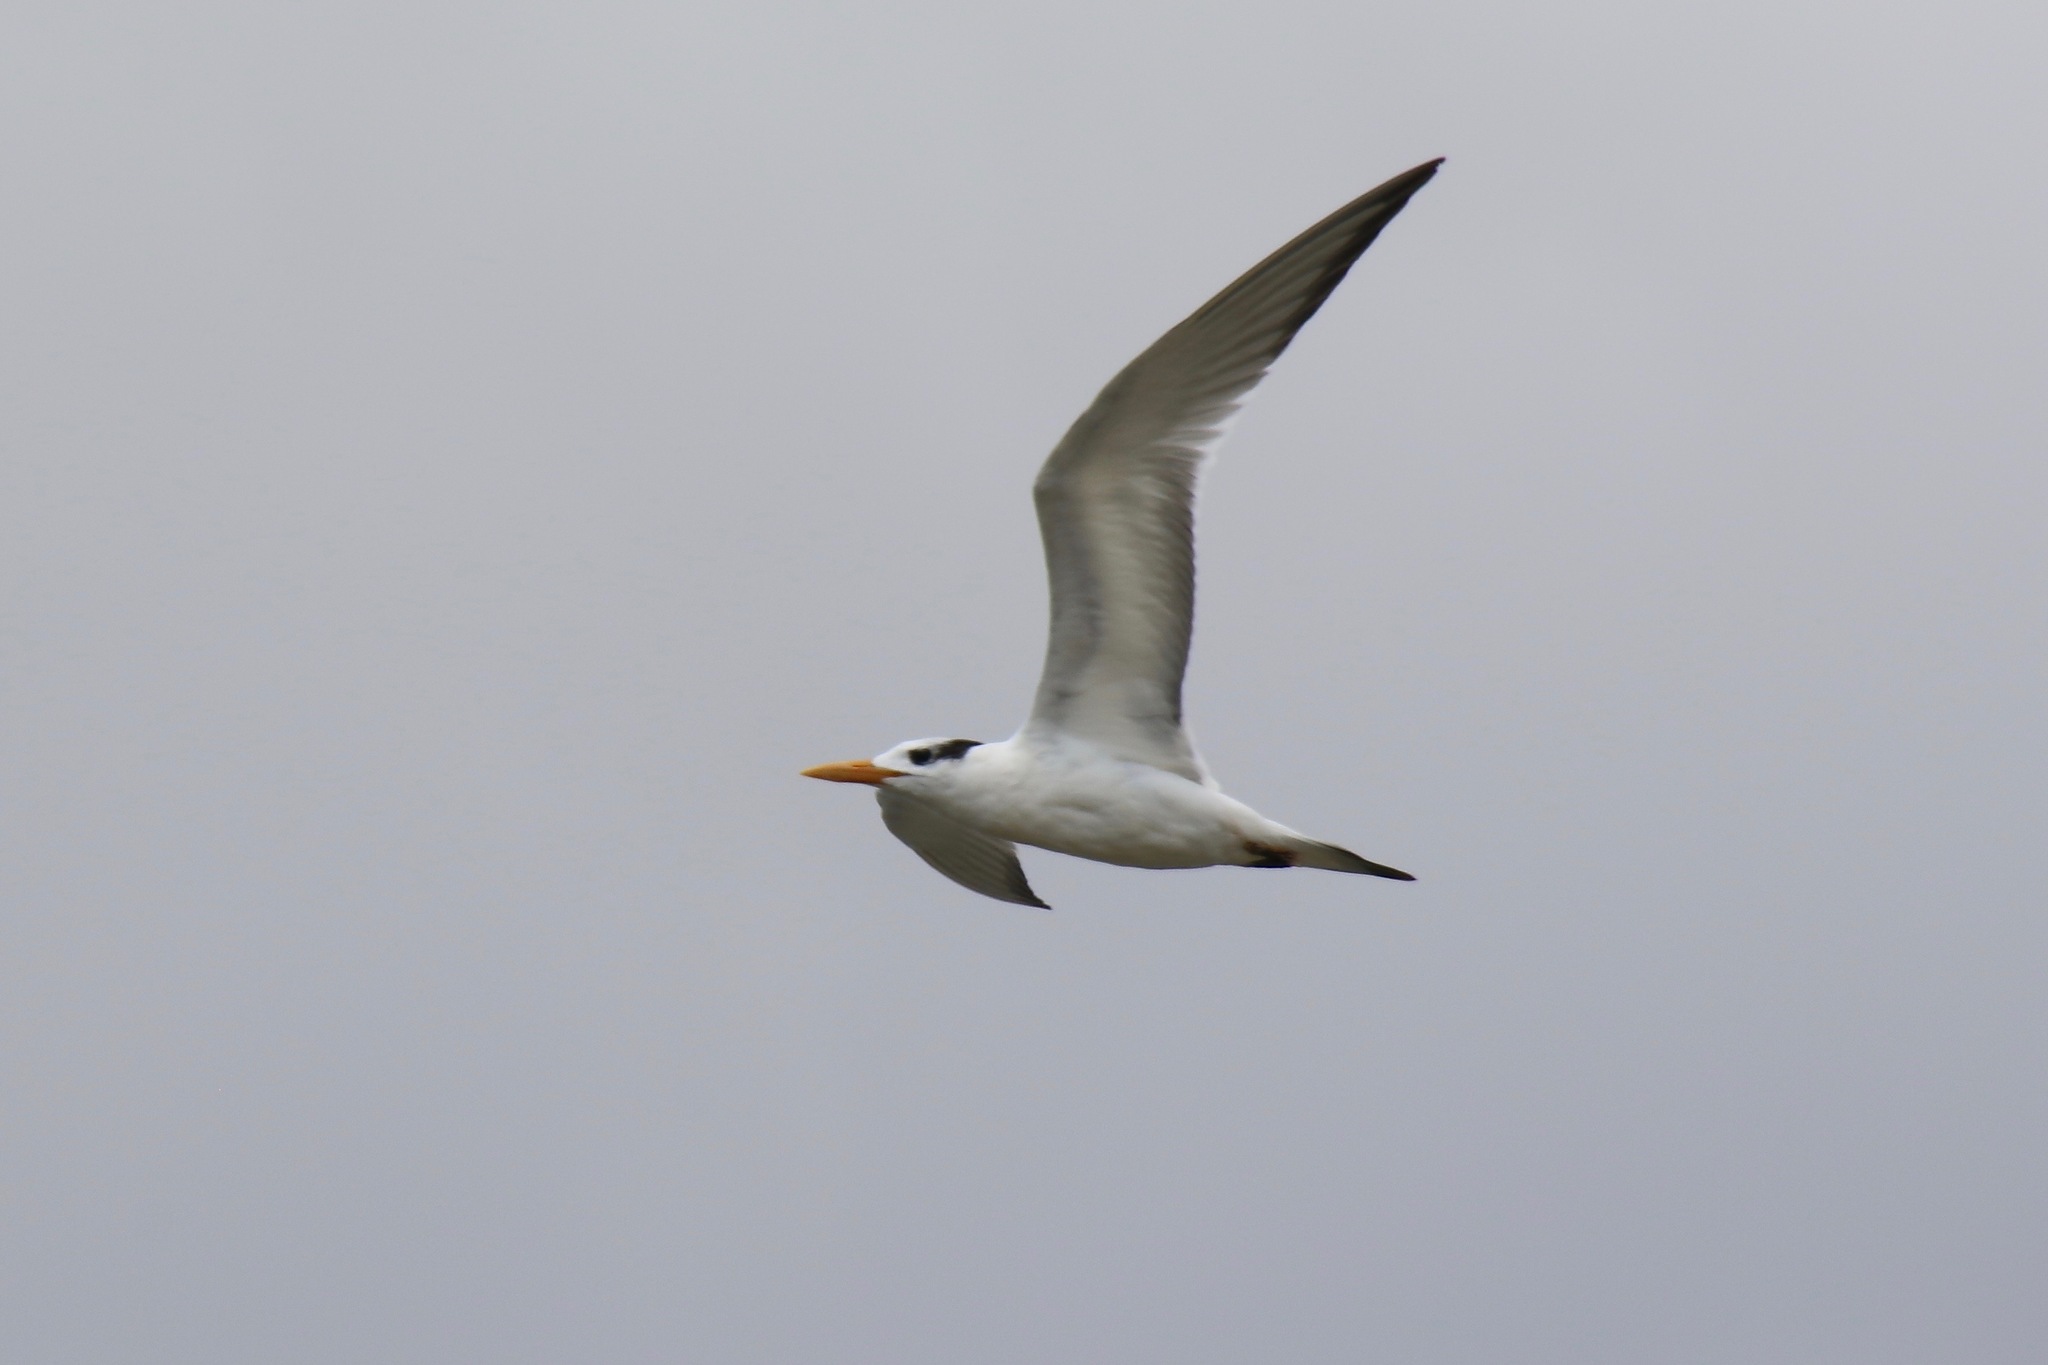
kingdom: Animalia
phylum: Chordata
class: Aves
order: Charadriiformes
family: Laridae
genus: Thalasseus
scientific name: Thalasseus maximus
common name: Royal tern
